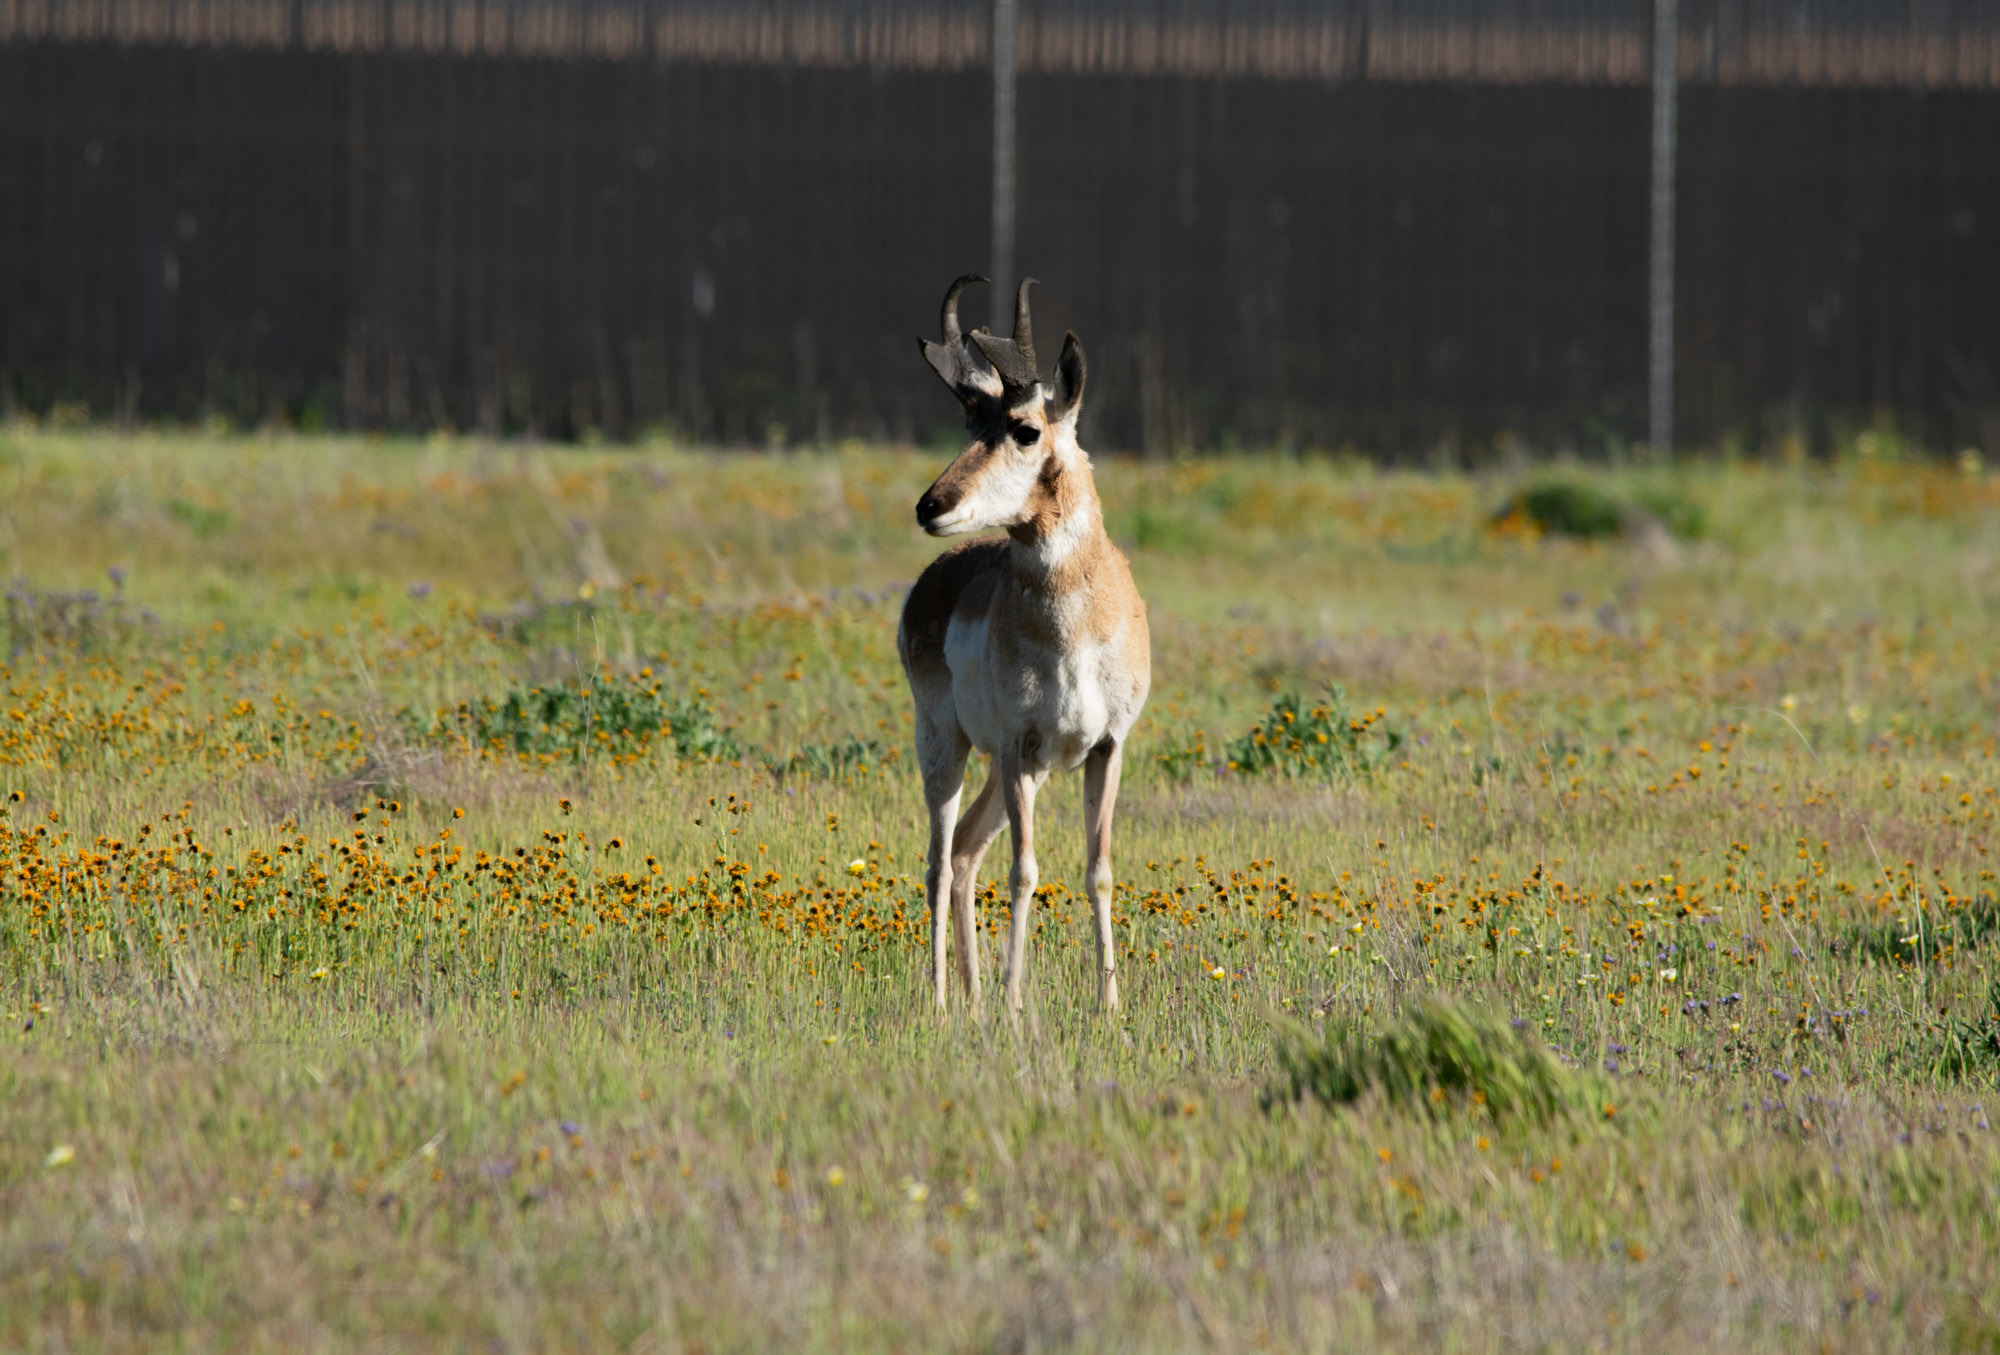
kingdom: Animalia
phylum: Chordata
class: Mammalia
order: Artiodactyla
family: Antilocapridae
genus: Antilocapra
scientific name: Antilocapra americana
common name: Pronghorn
